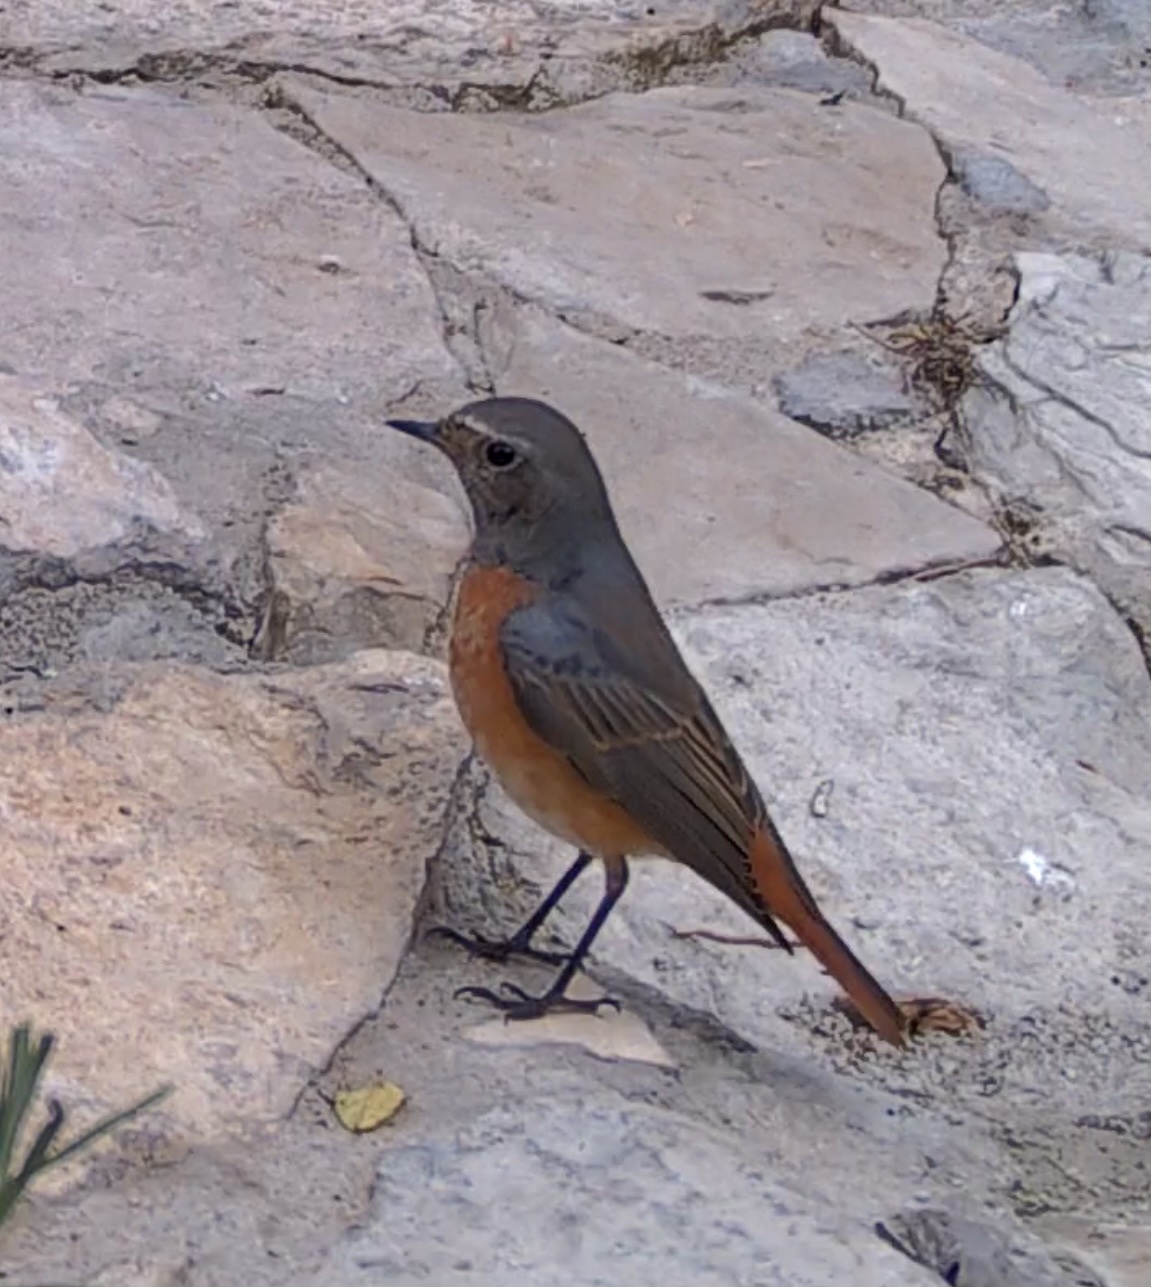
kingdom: Animalia
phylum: Chordata
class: Aves
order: Passeriformes
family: Muscicapidae
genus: Phoenicurus
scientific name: Phoenicurus phoenicurus
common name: Common redstart
